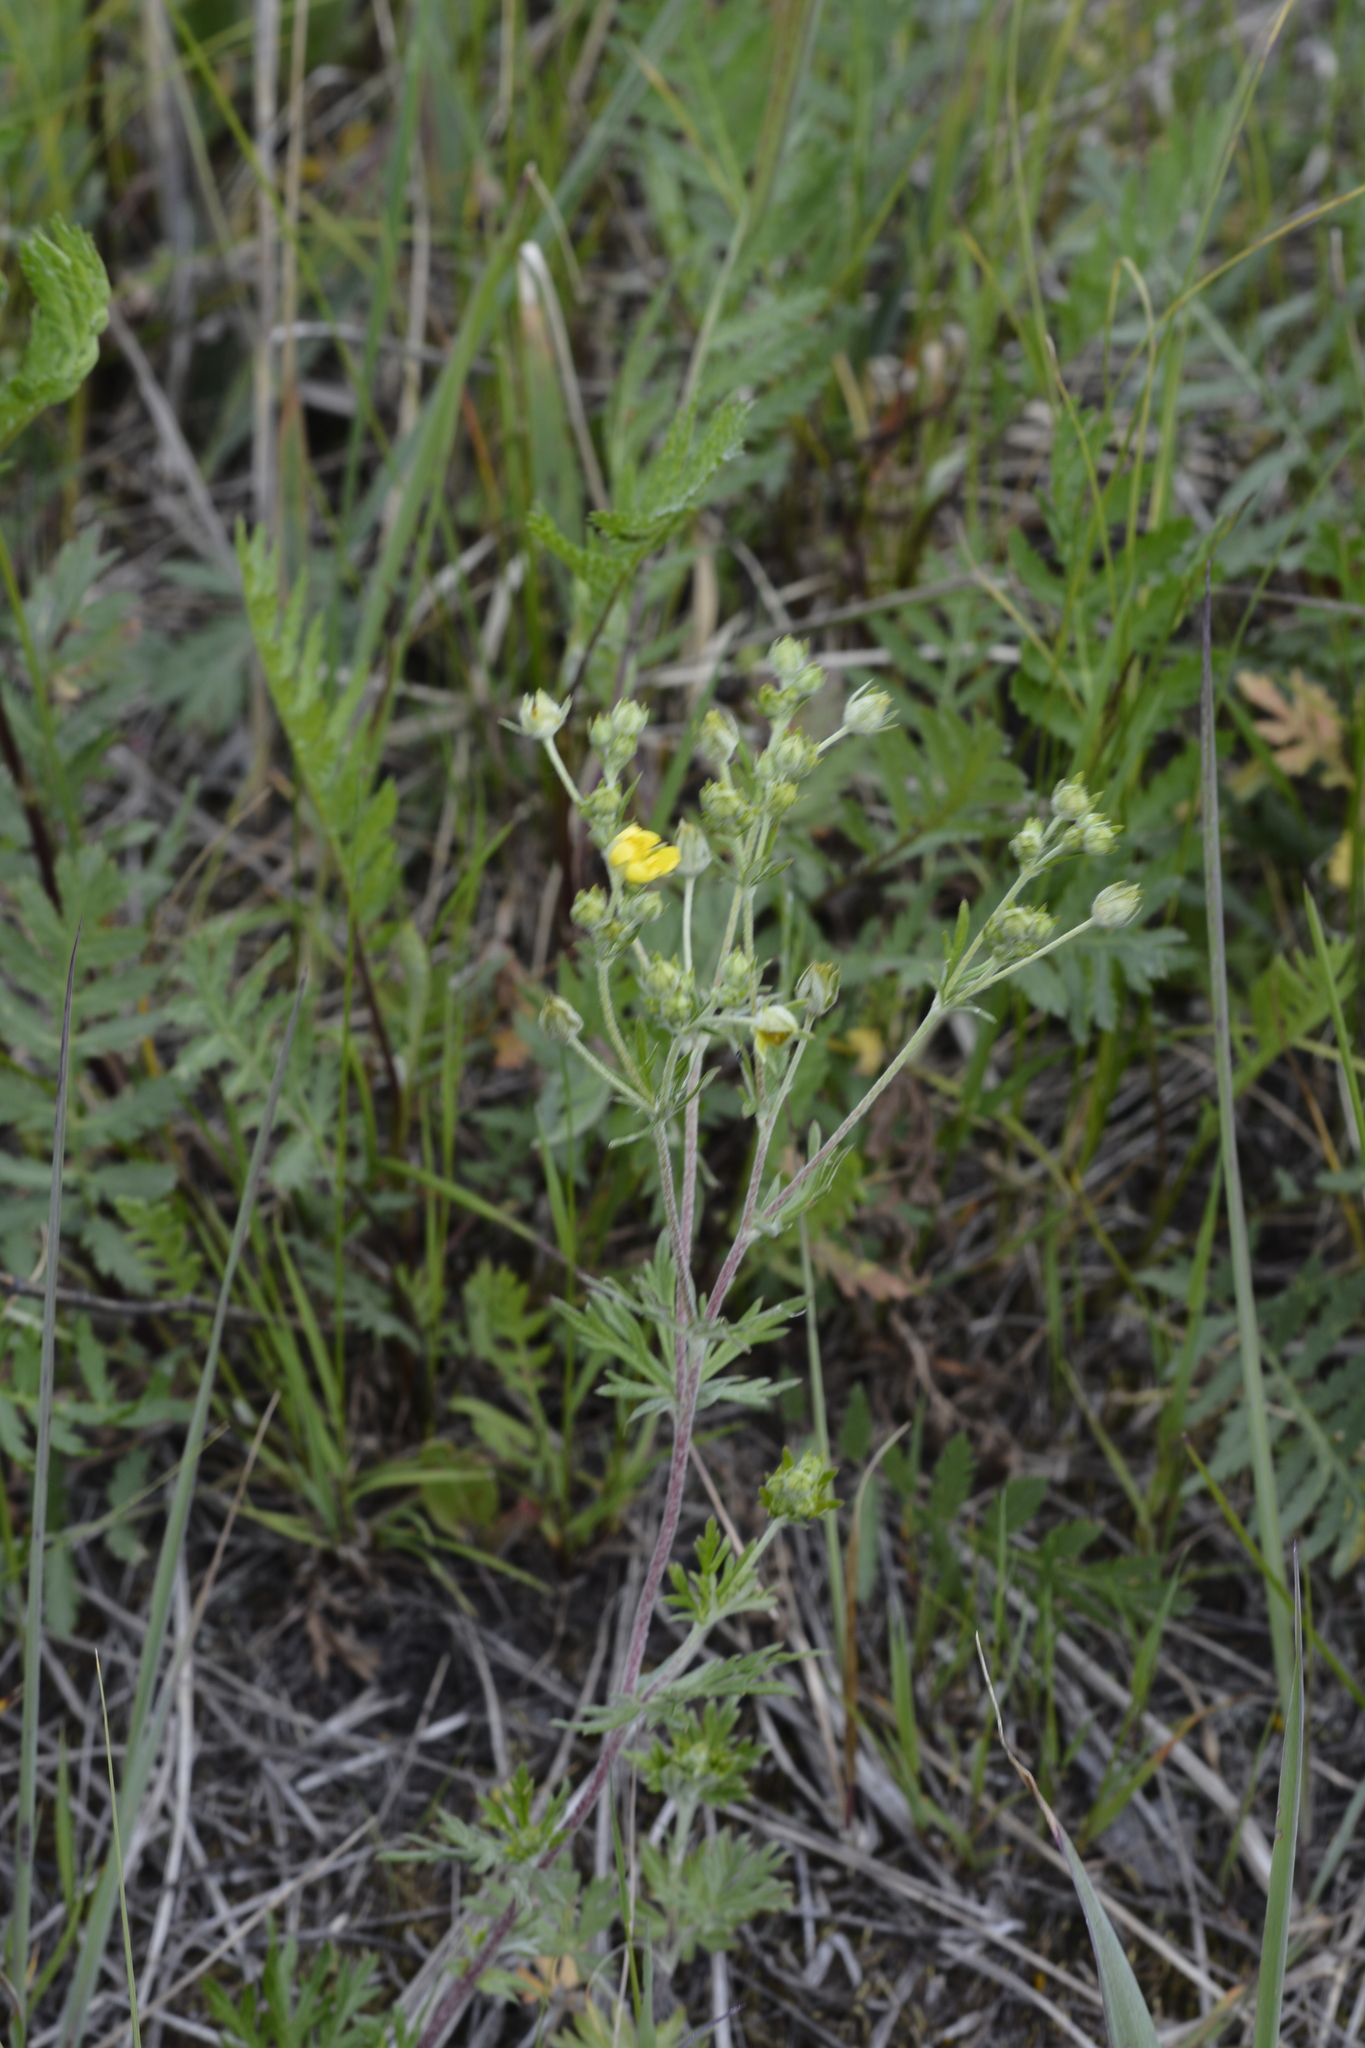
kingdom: Plantae
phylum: Tracheophyta
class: Magnoliopsida
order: Rosales
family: Rosaceae
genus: Potentilla
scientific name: Potentilla argentea
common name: Hoary cinquefoil
